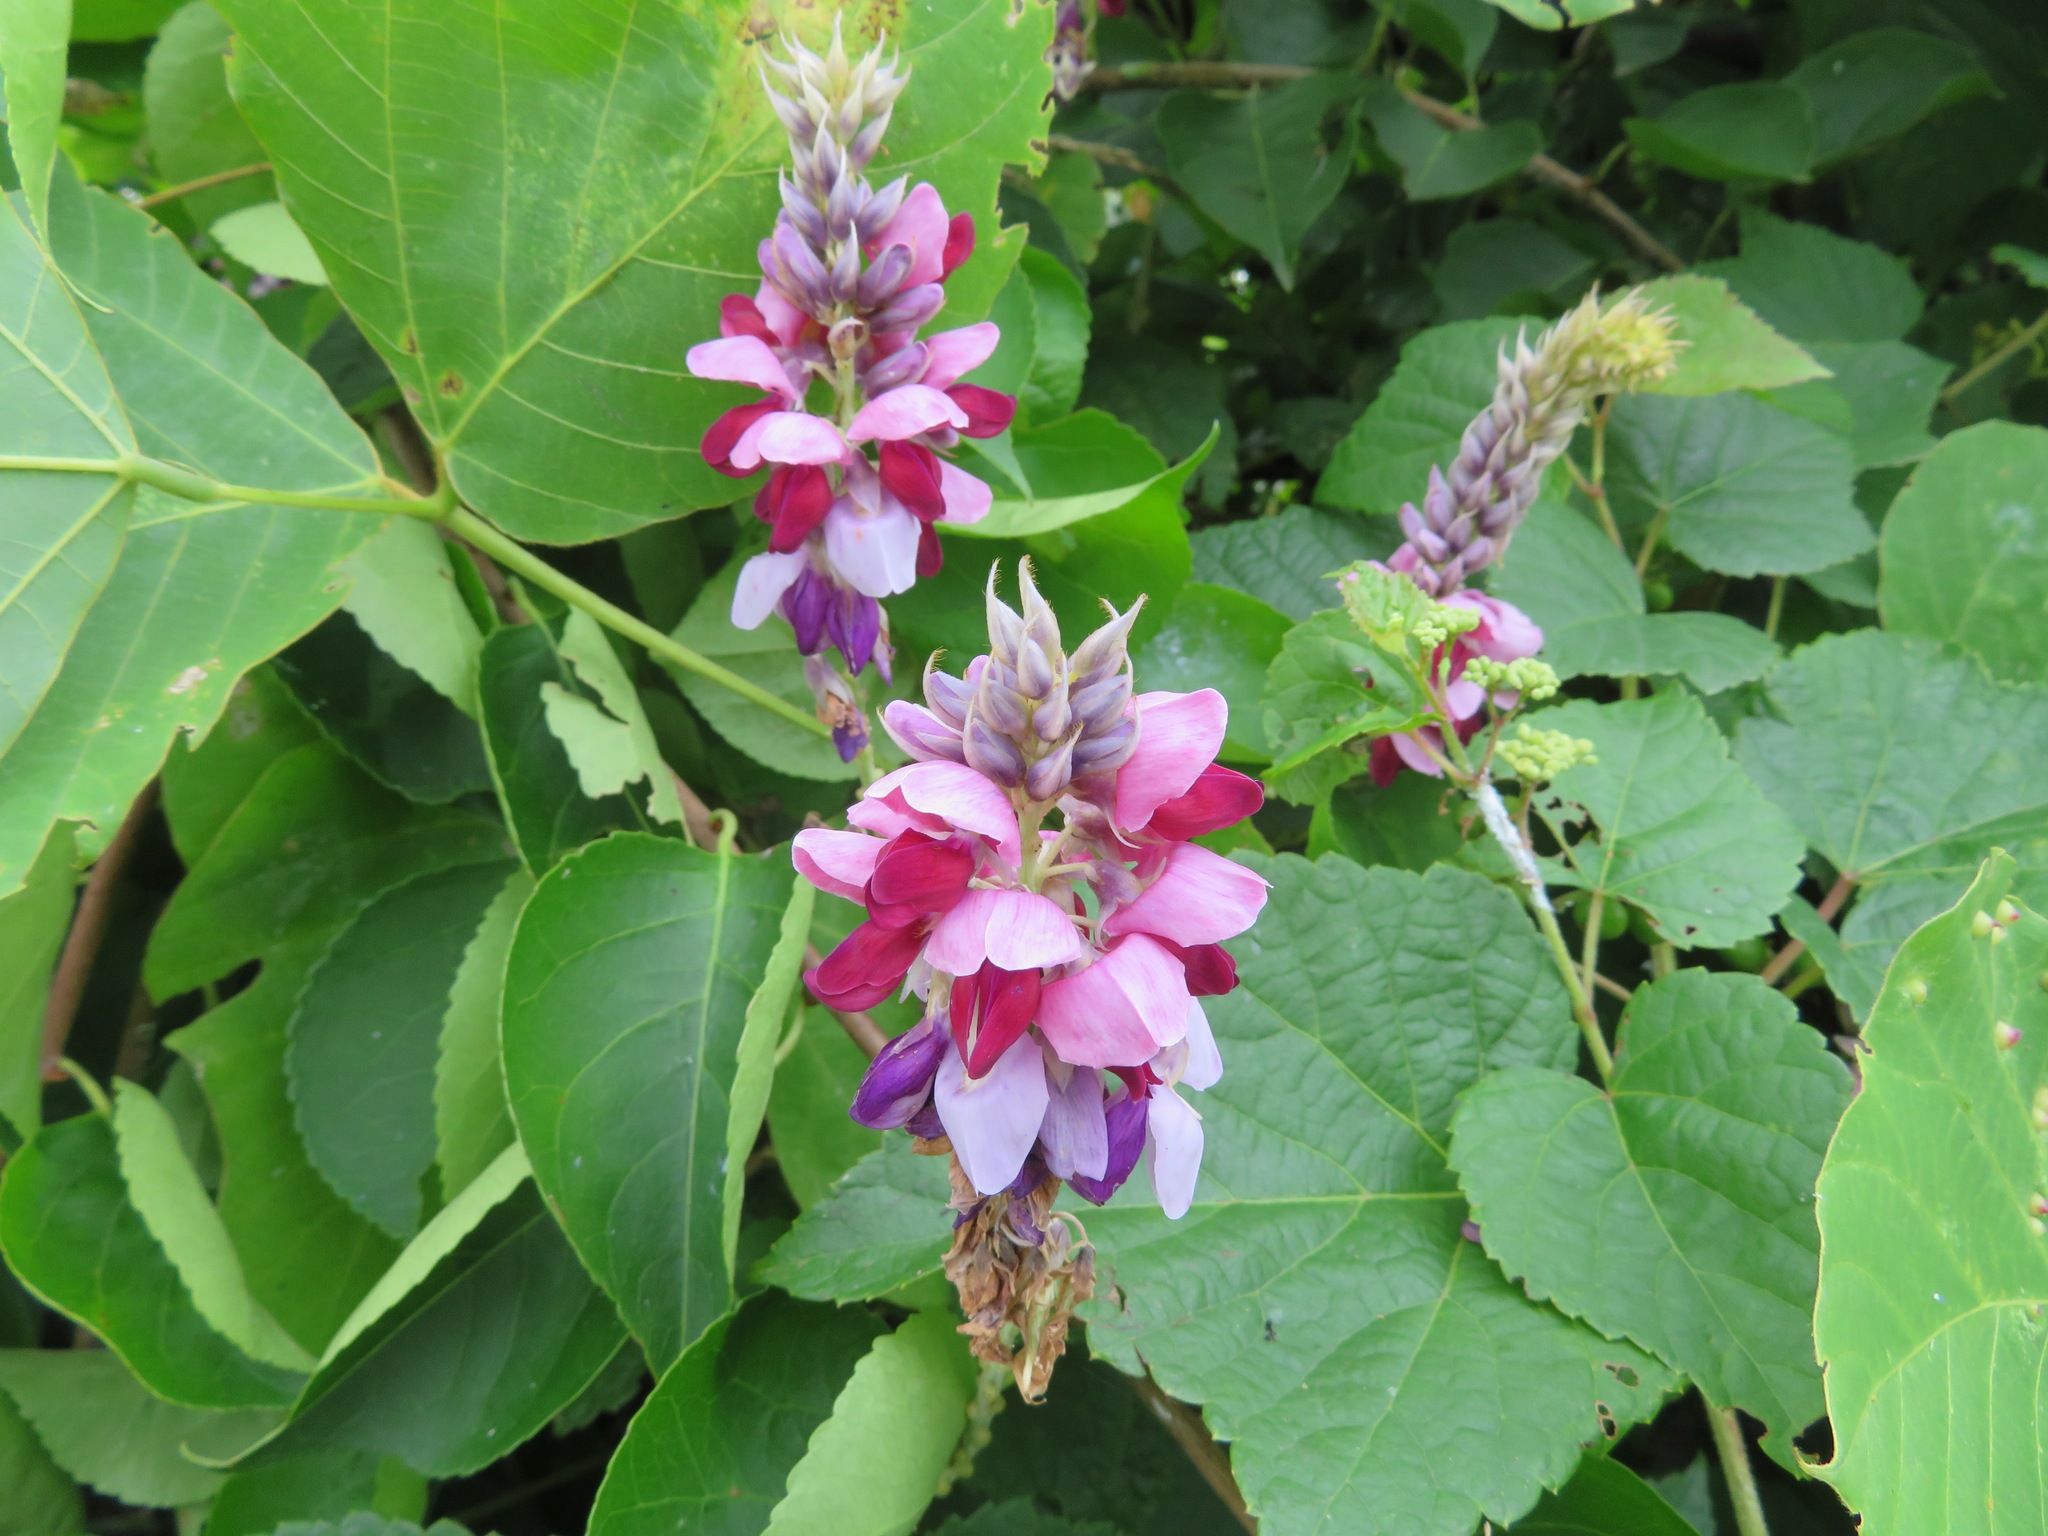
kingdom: Plantae
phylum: Tracheophyta
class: Magnoliopsida
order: Fabales
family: Fabaceae
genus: Pueraria
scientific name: Pueraria montana
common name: Kudzu
